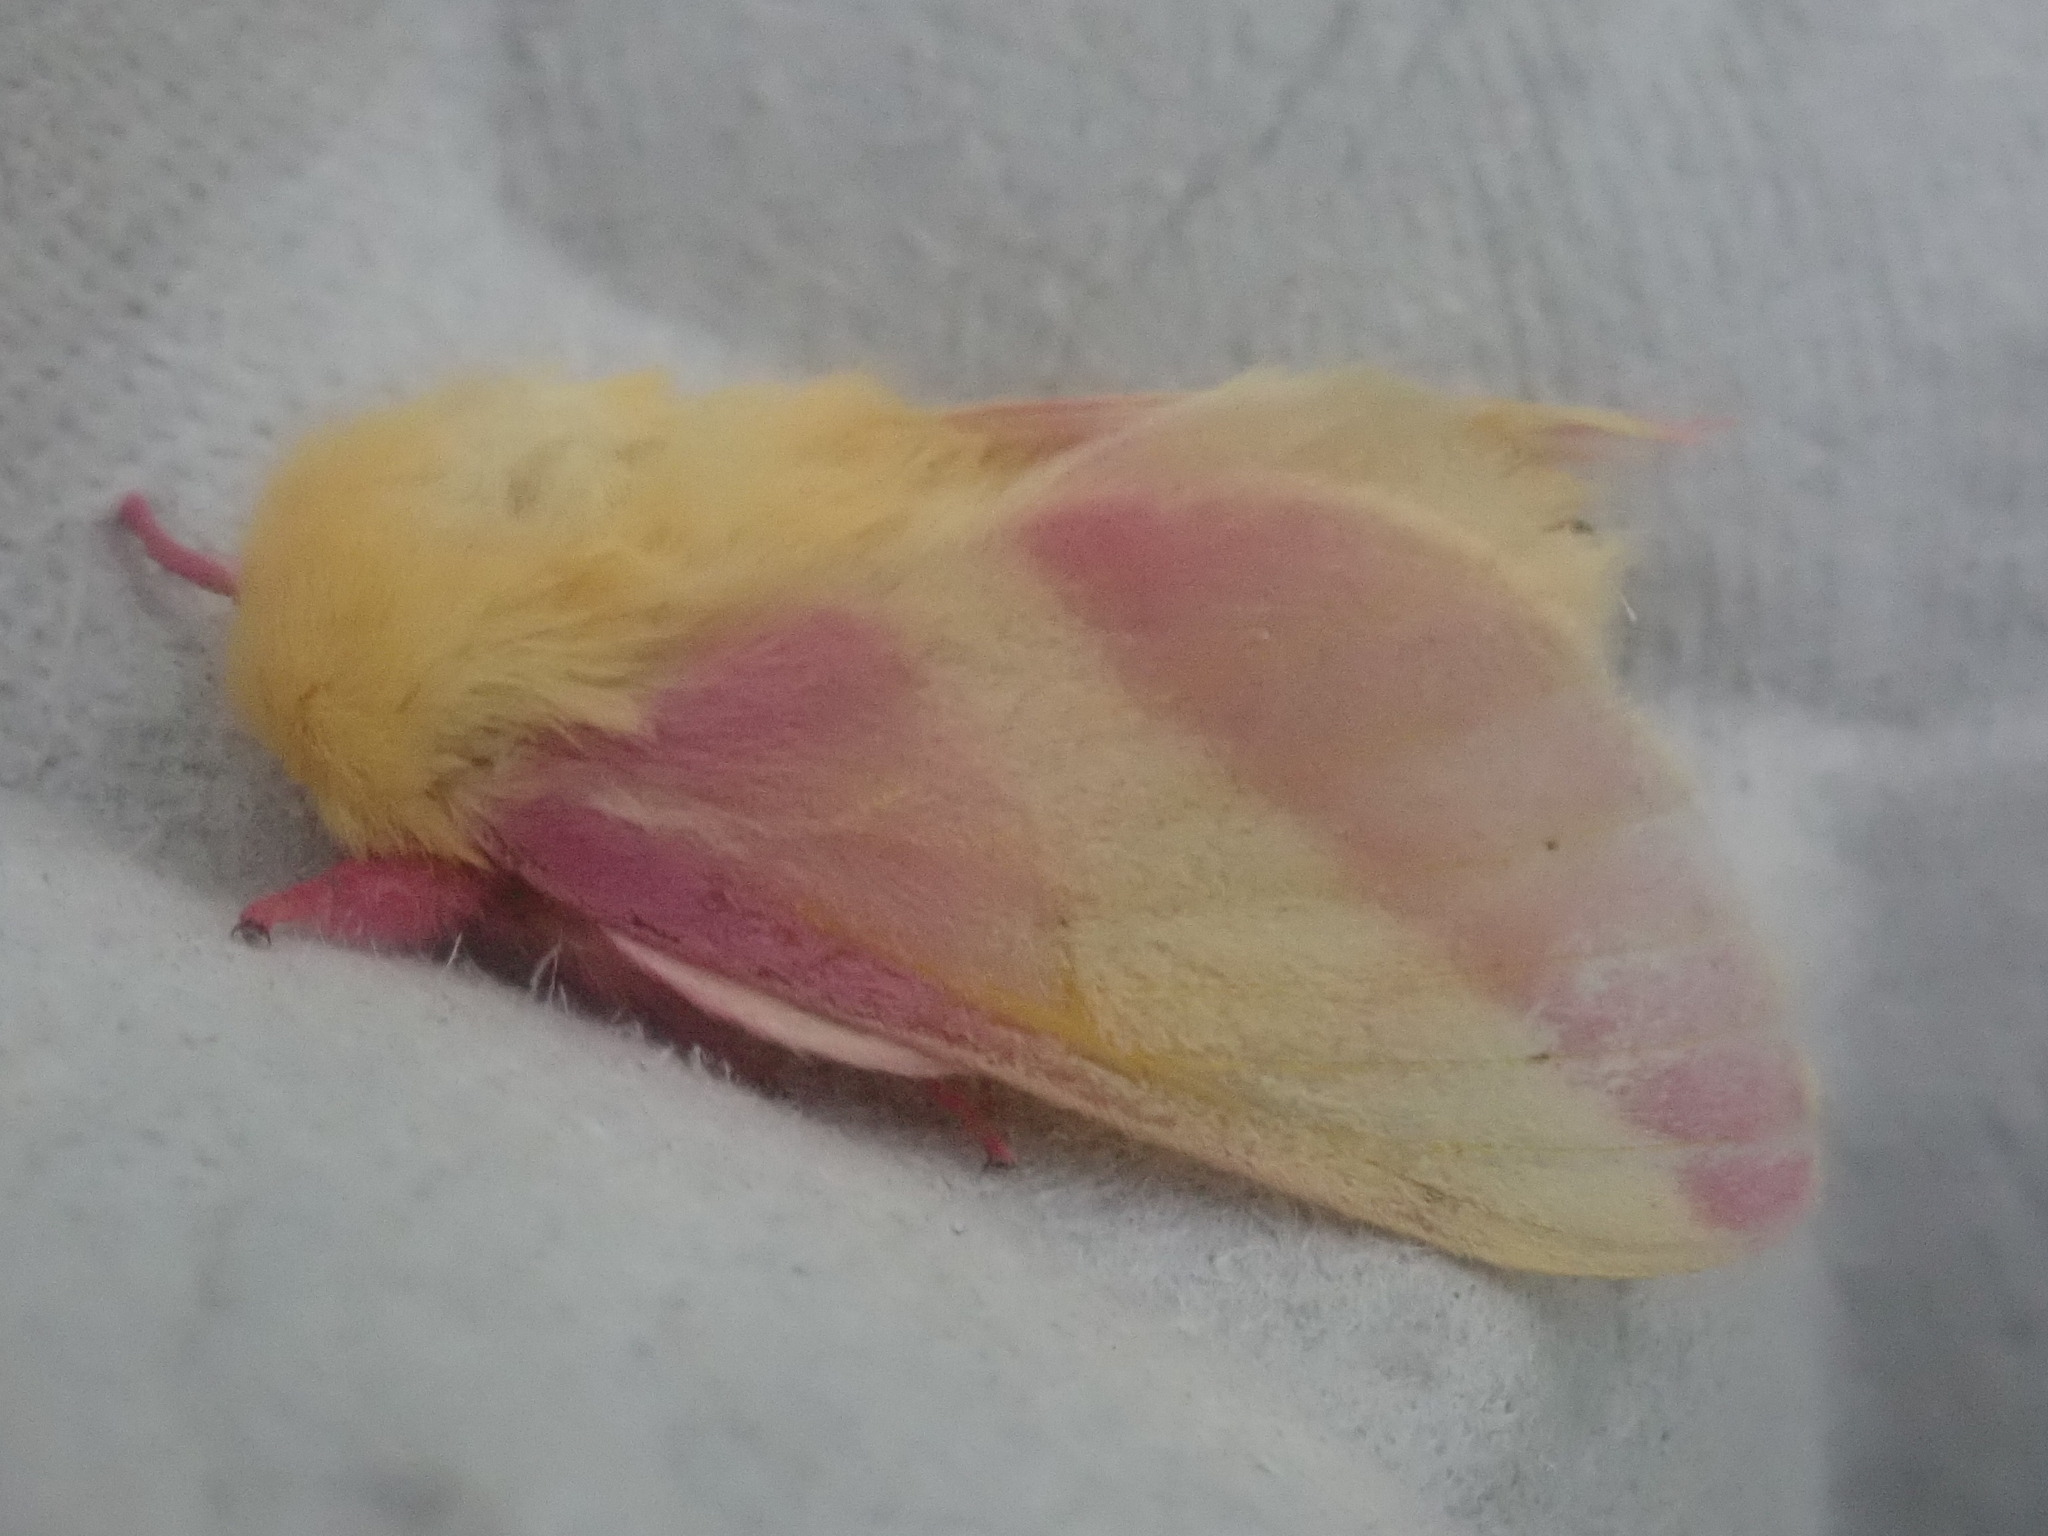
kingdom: Animalia
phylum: Arthropoda
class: Insecta
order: Lepidoptera
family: Saturniidae
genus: Dryocampa
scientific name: Dryocampa rubicunda
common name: Rosy maple moth
